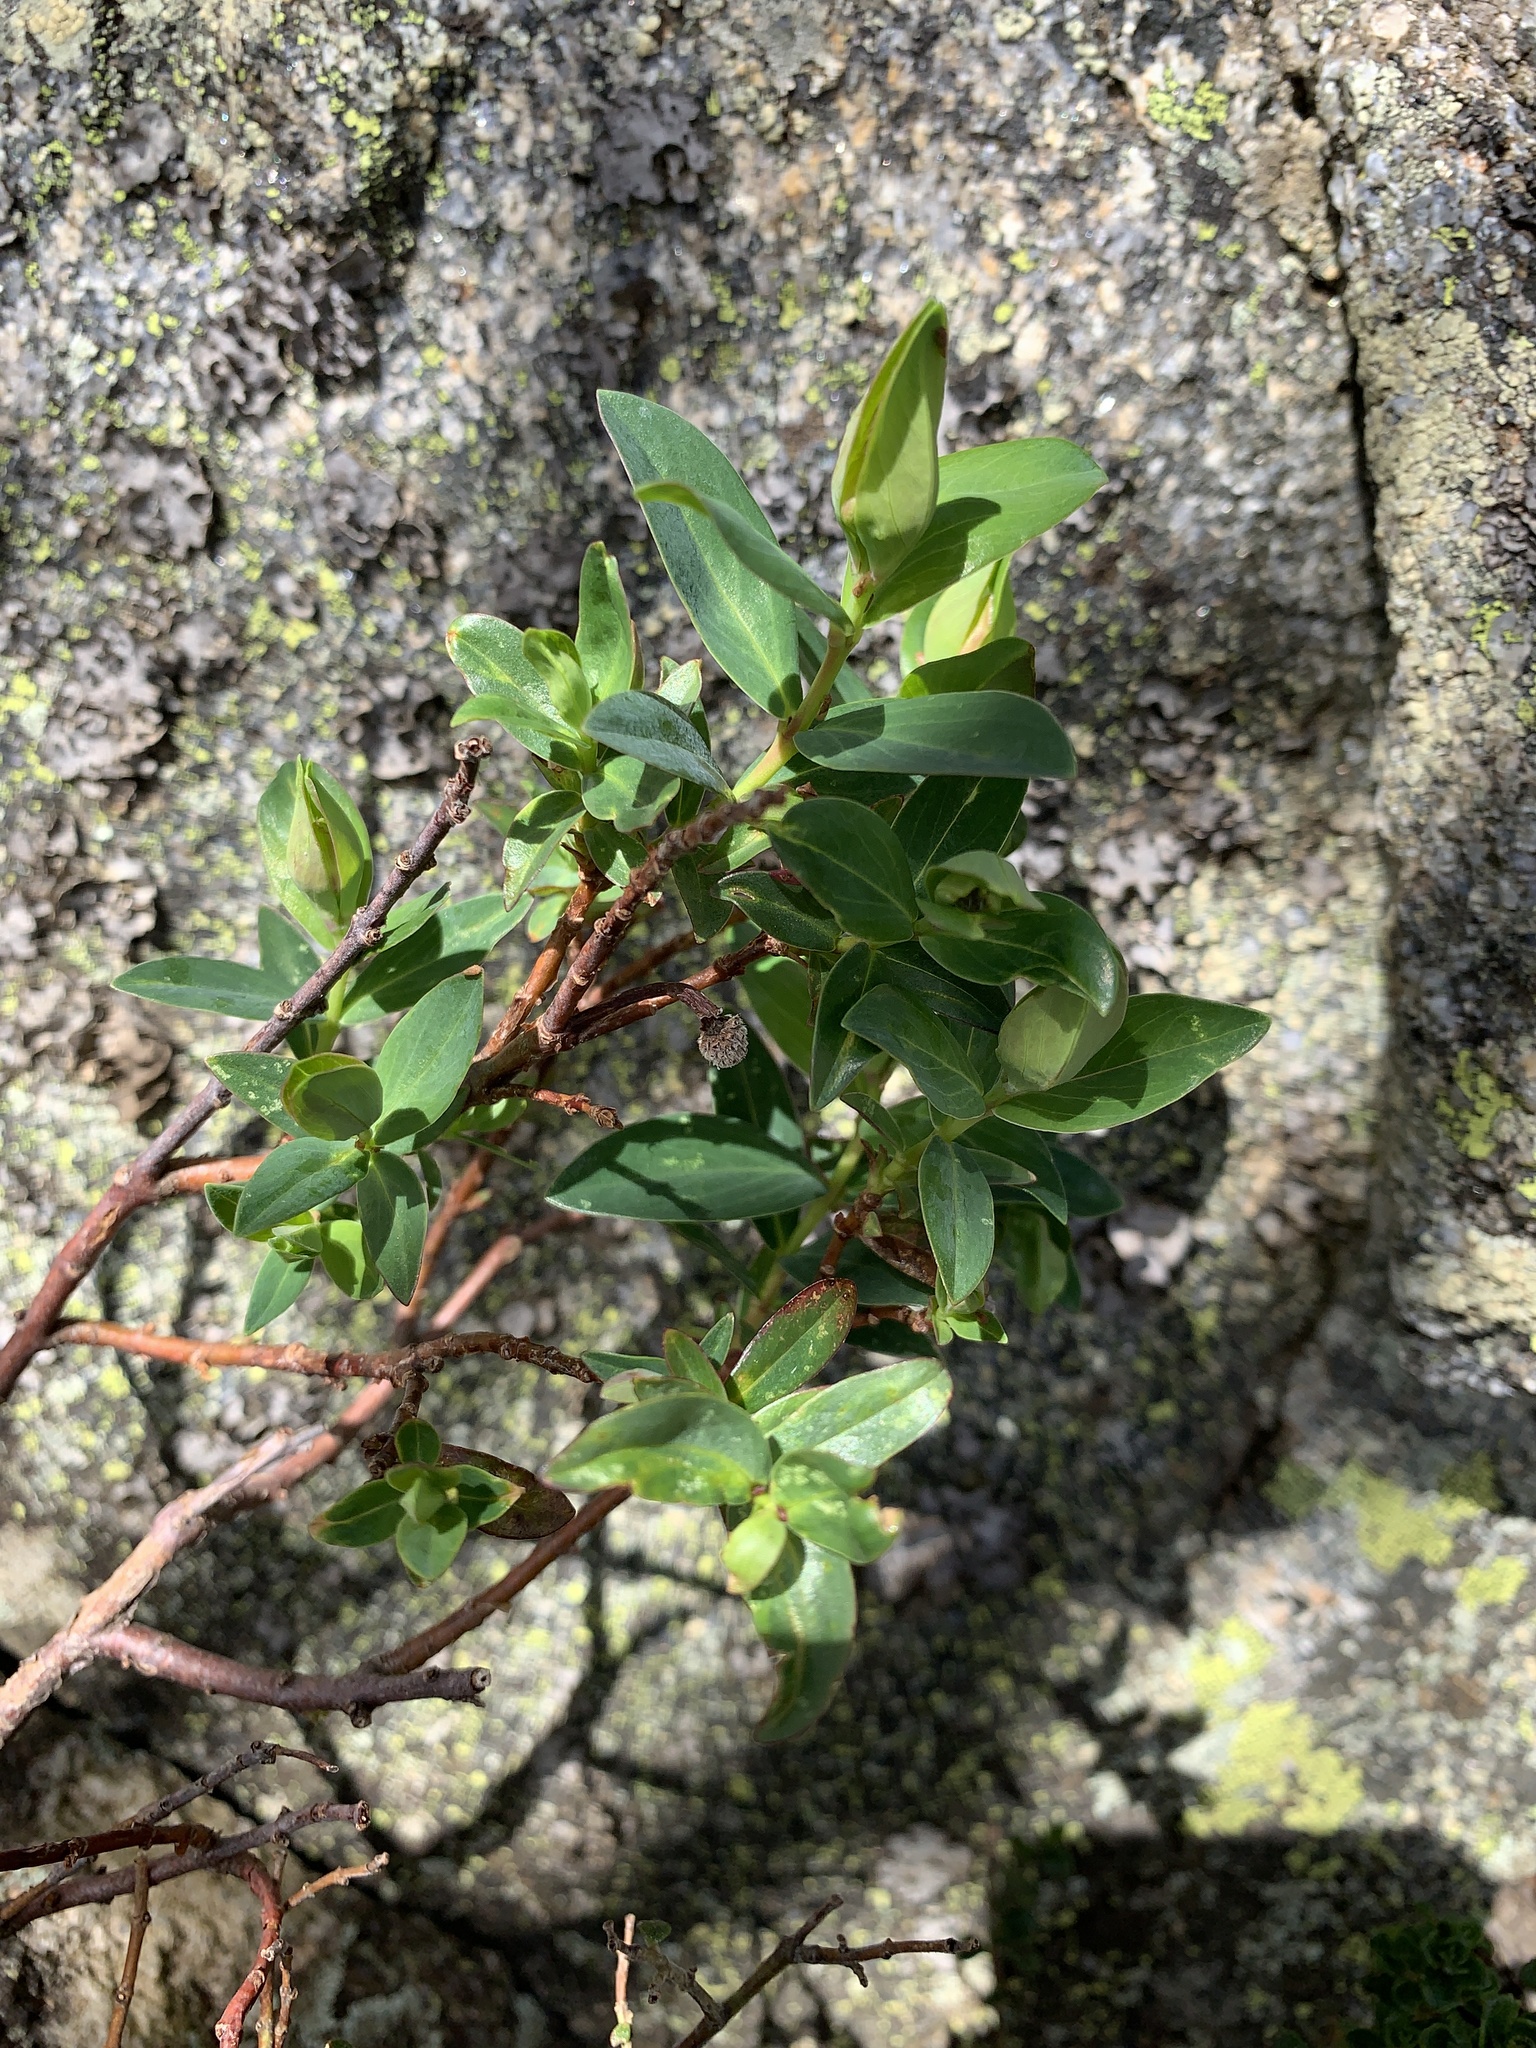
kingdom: Plantae
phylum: Tracheophyta
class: Magnoliopsida
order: Malvales
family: Thymelaeaceae
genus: Pimelea
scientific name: Pimelea ligustrina
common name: Tall riceflower
